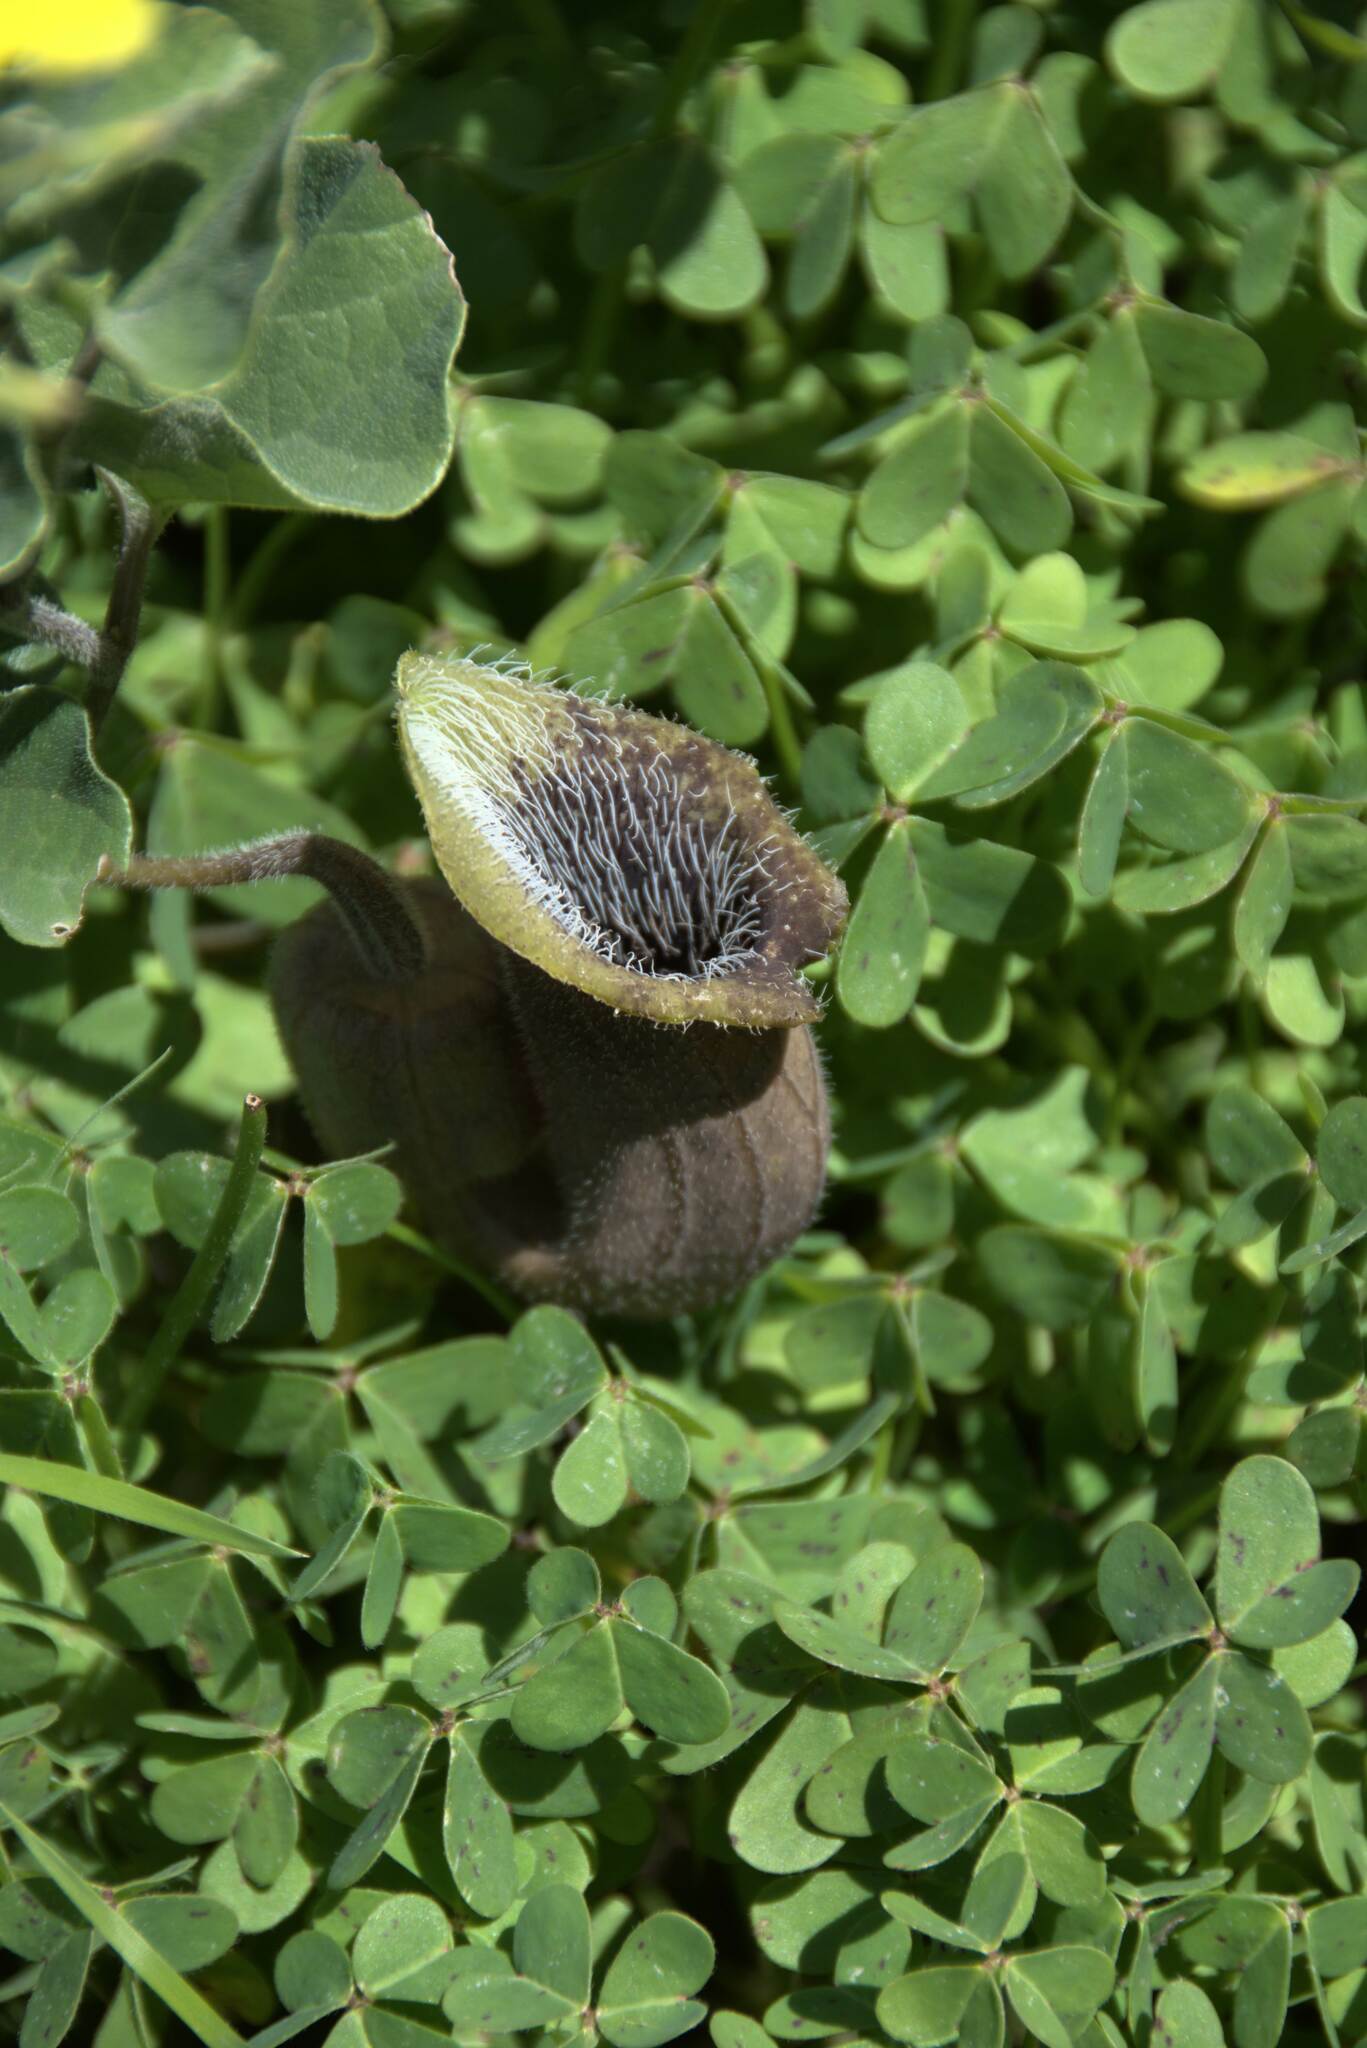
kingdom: Plantae
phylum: Tracheophyta
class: Magnoliopsida
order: Piperales
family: Aristolochiaceae
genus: Aristolochia
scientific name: Aristolochia cretica
